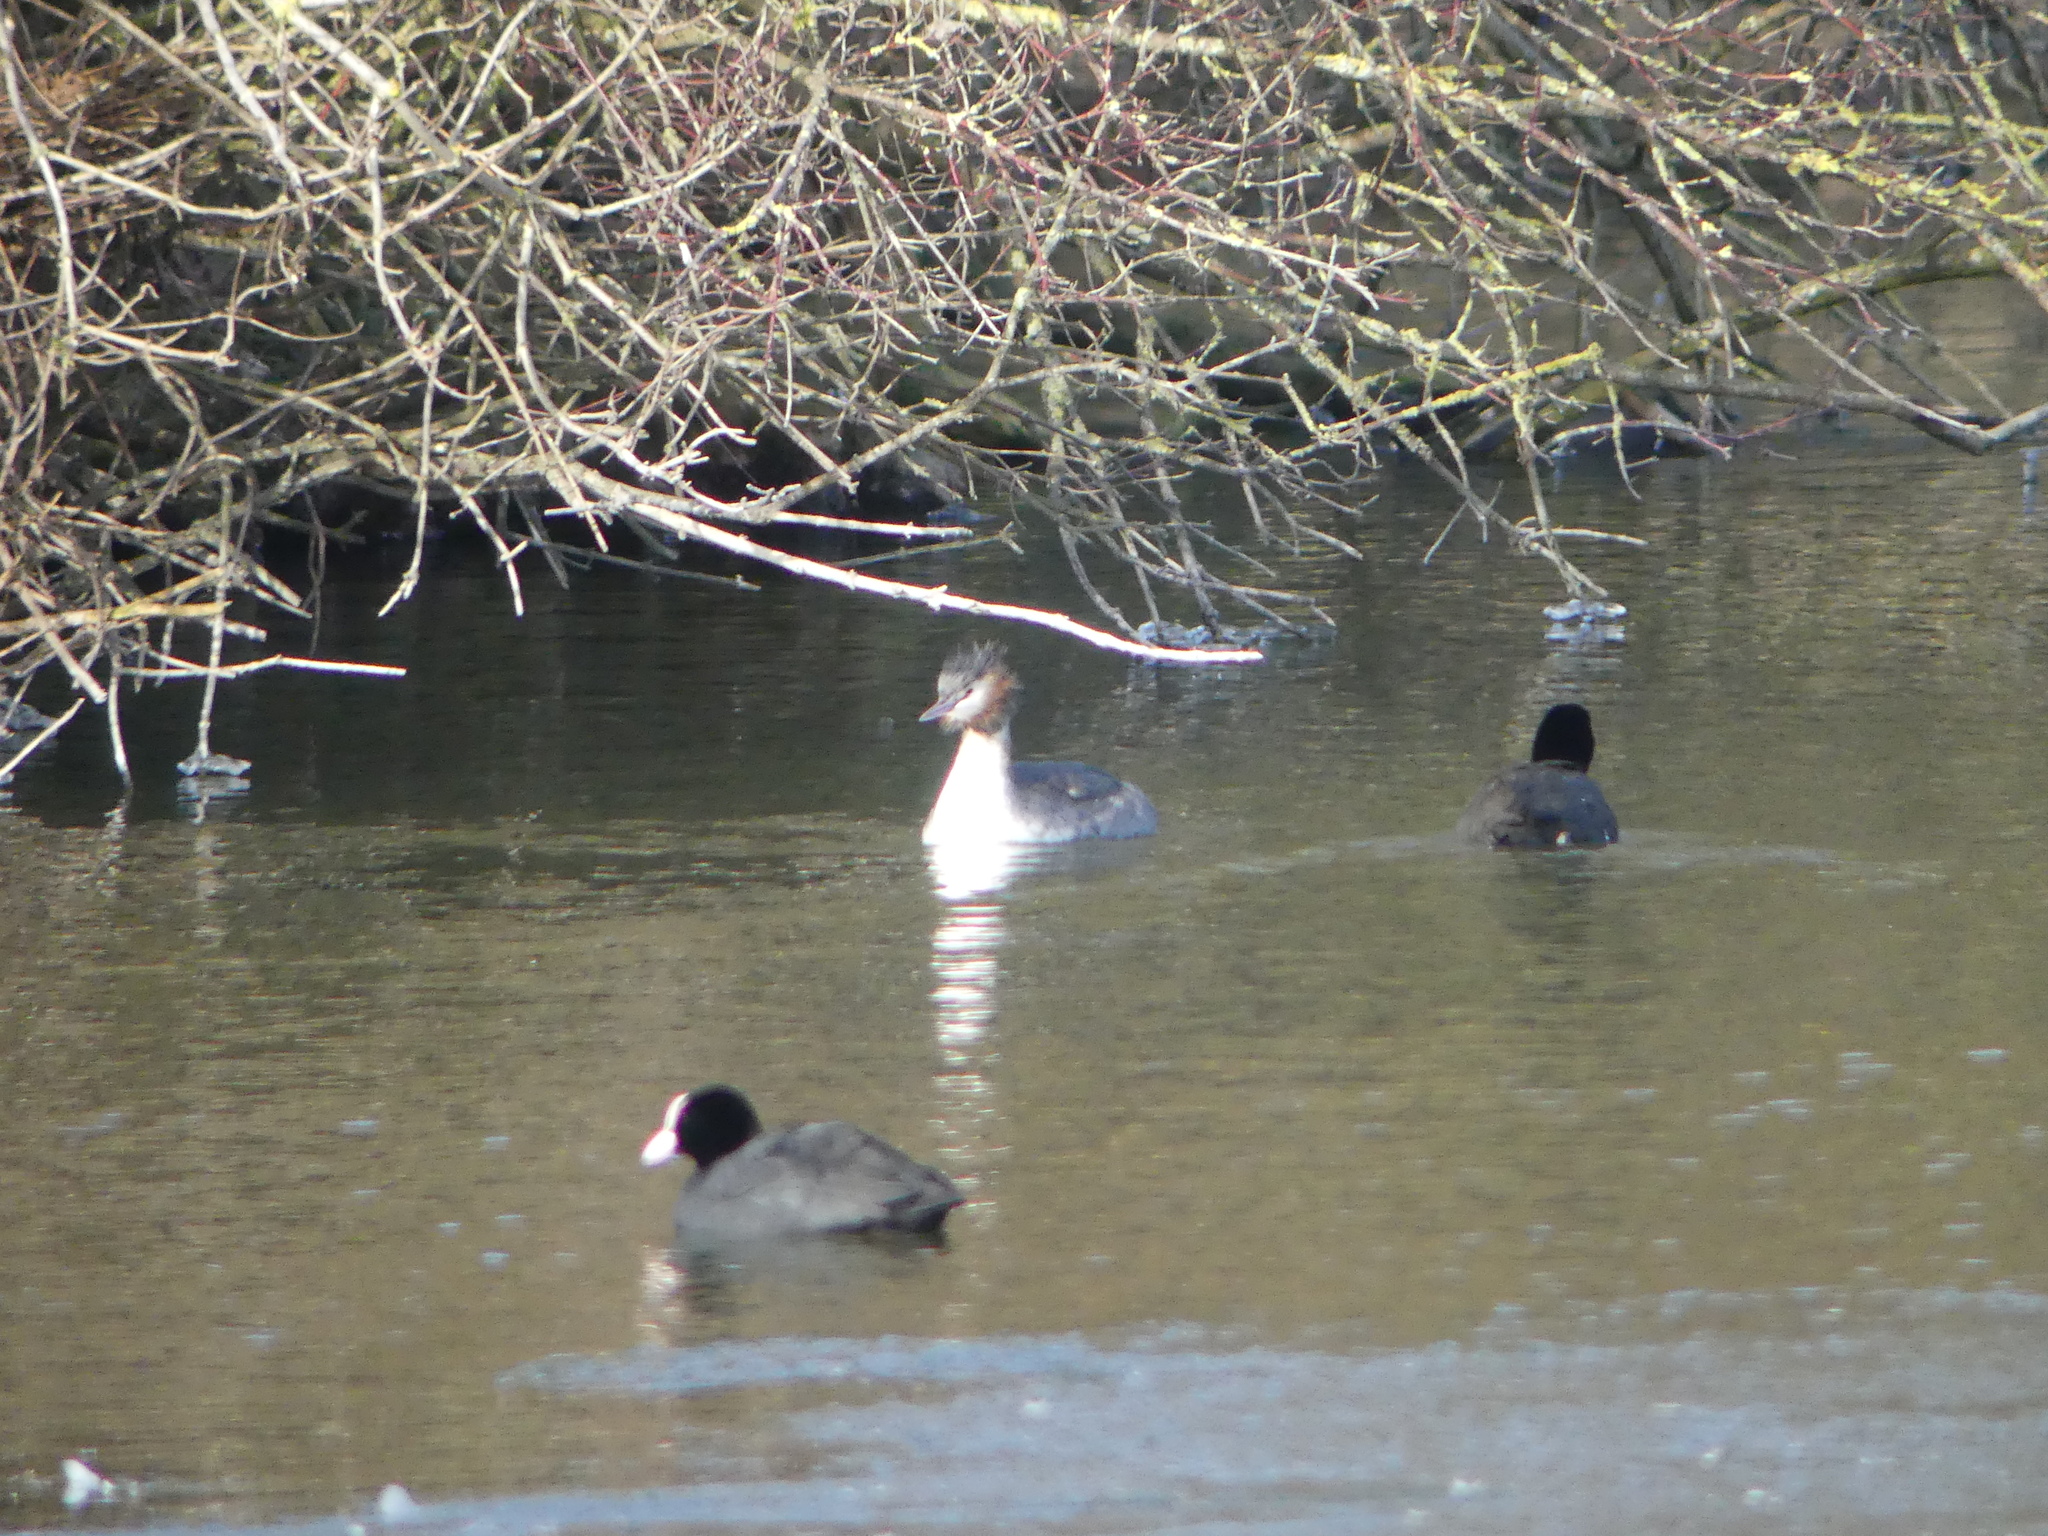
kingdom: Animalia
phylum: Chordata
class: Aves
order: Podicipediformes
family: Podicipedidae
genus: Podiceps
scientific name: Podiceps cristatus
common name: Great crested grebe
